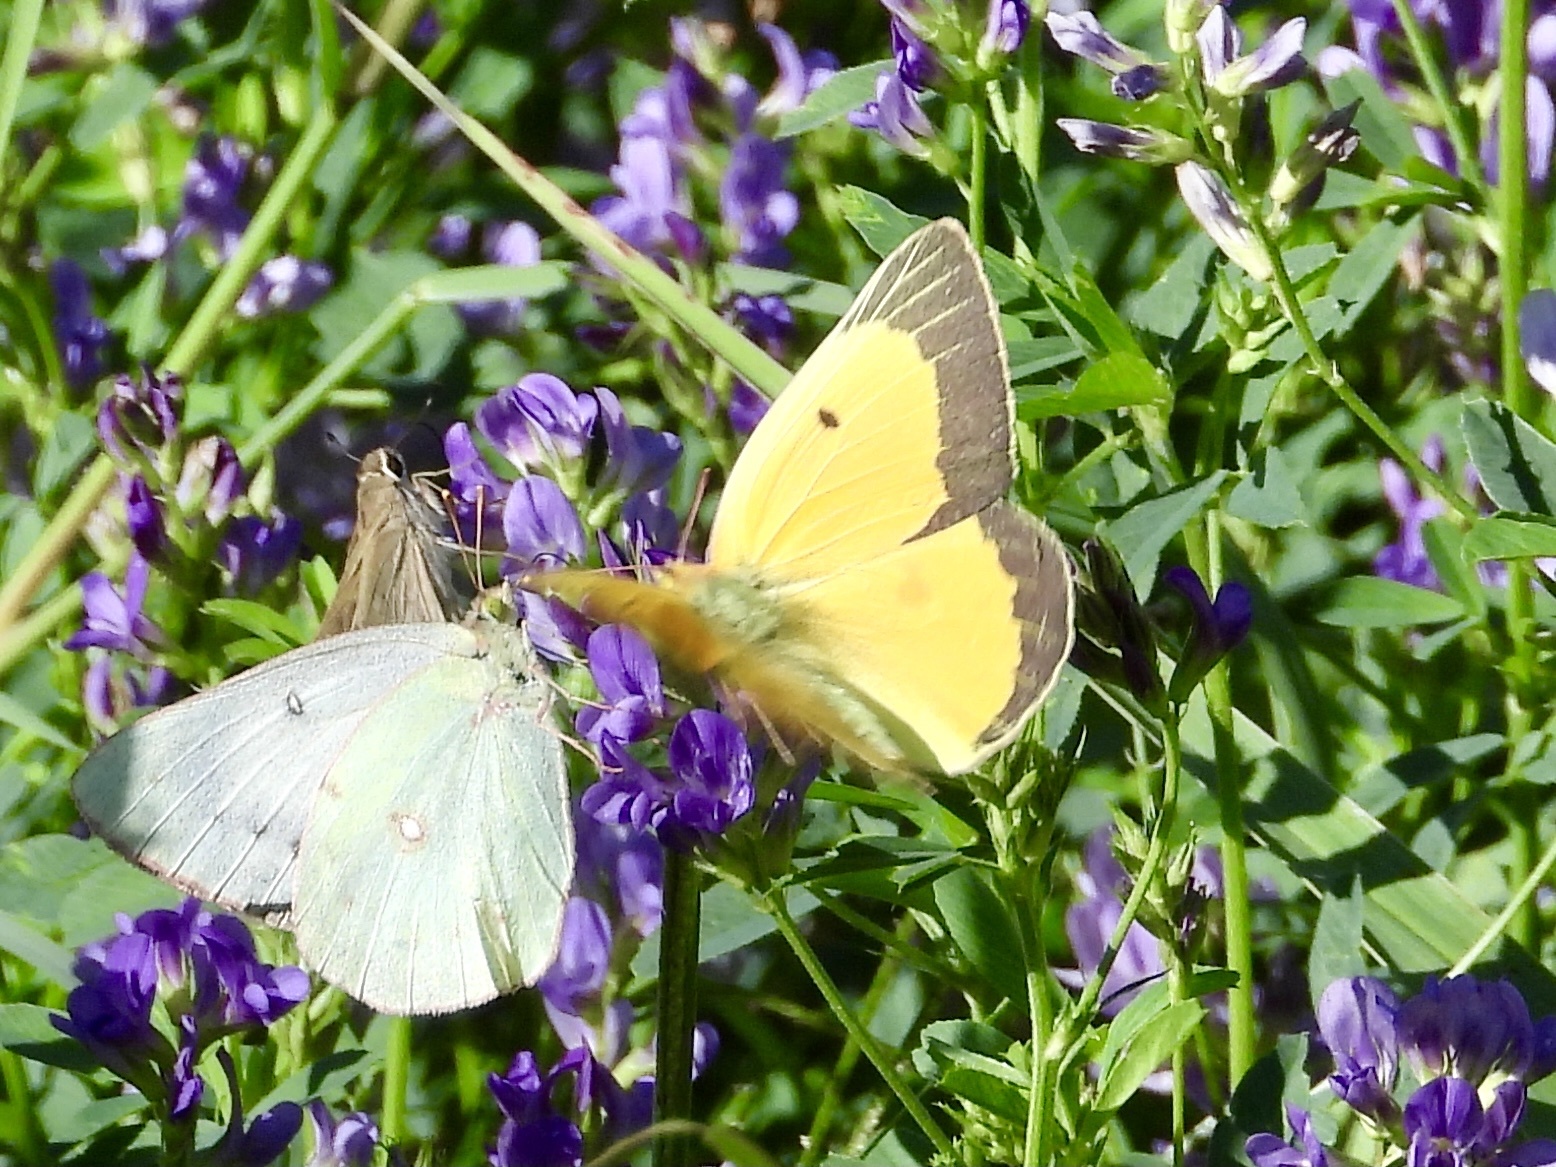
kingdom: Animalia
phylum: Arthropoda
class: Insecta
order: Lepidoptera
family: Pieridae
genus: Colias
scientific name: Colias eurytheme
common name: Alfalfa butterfly
